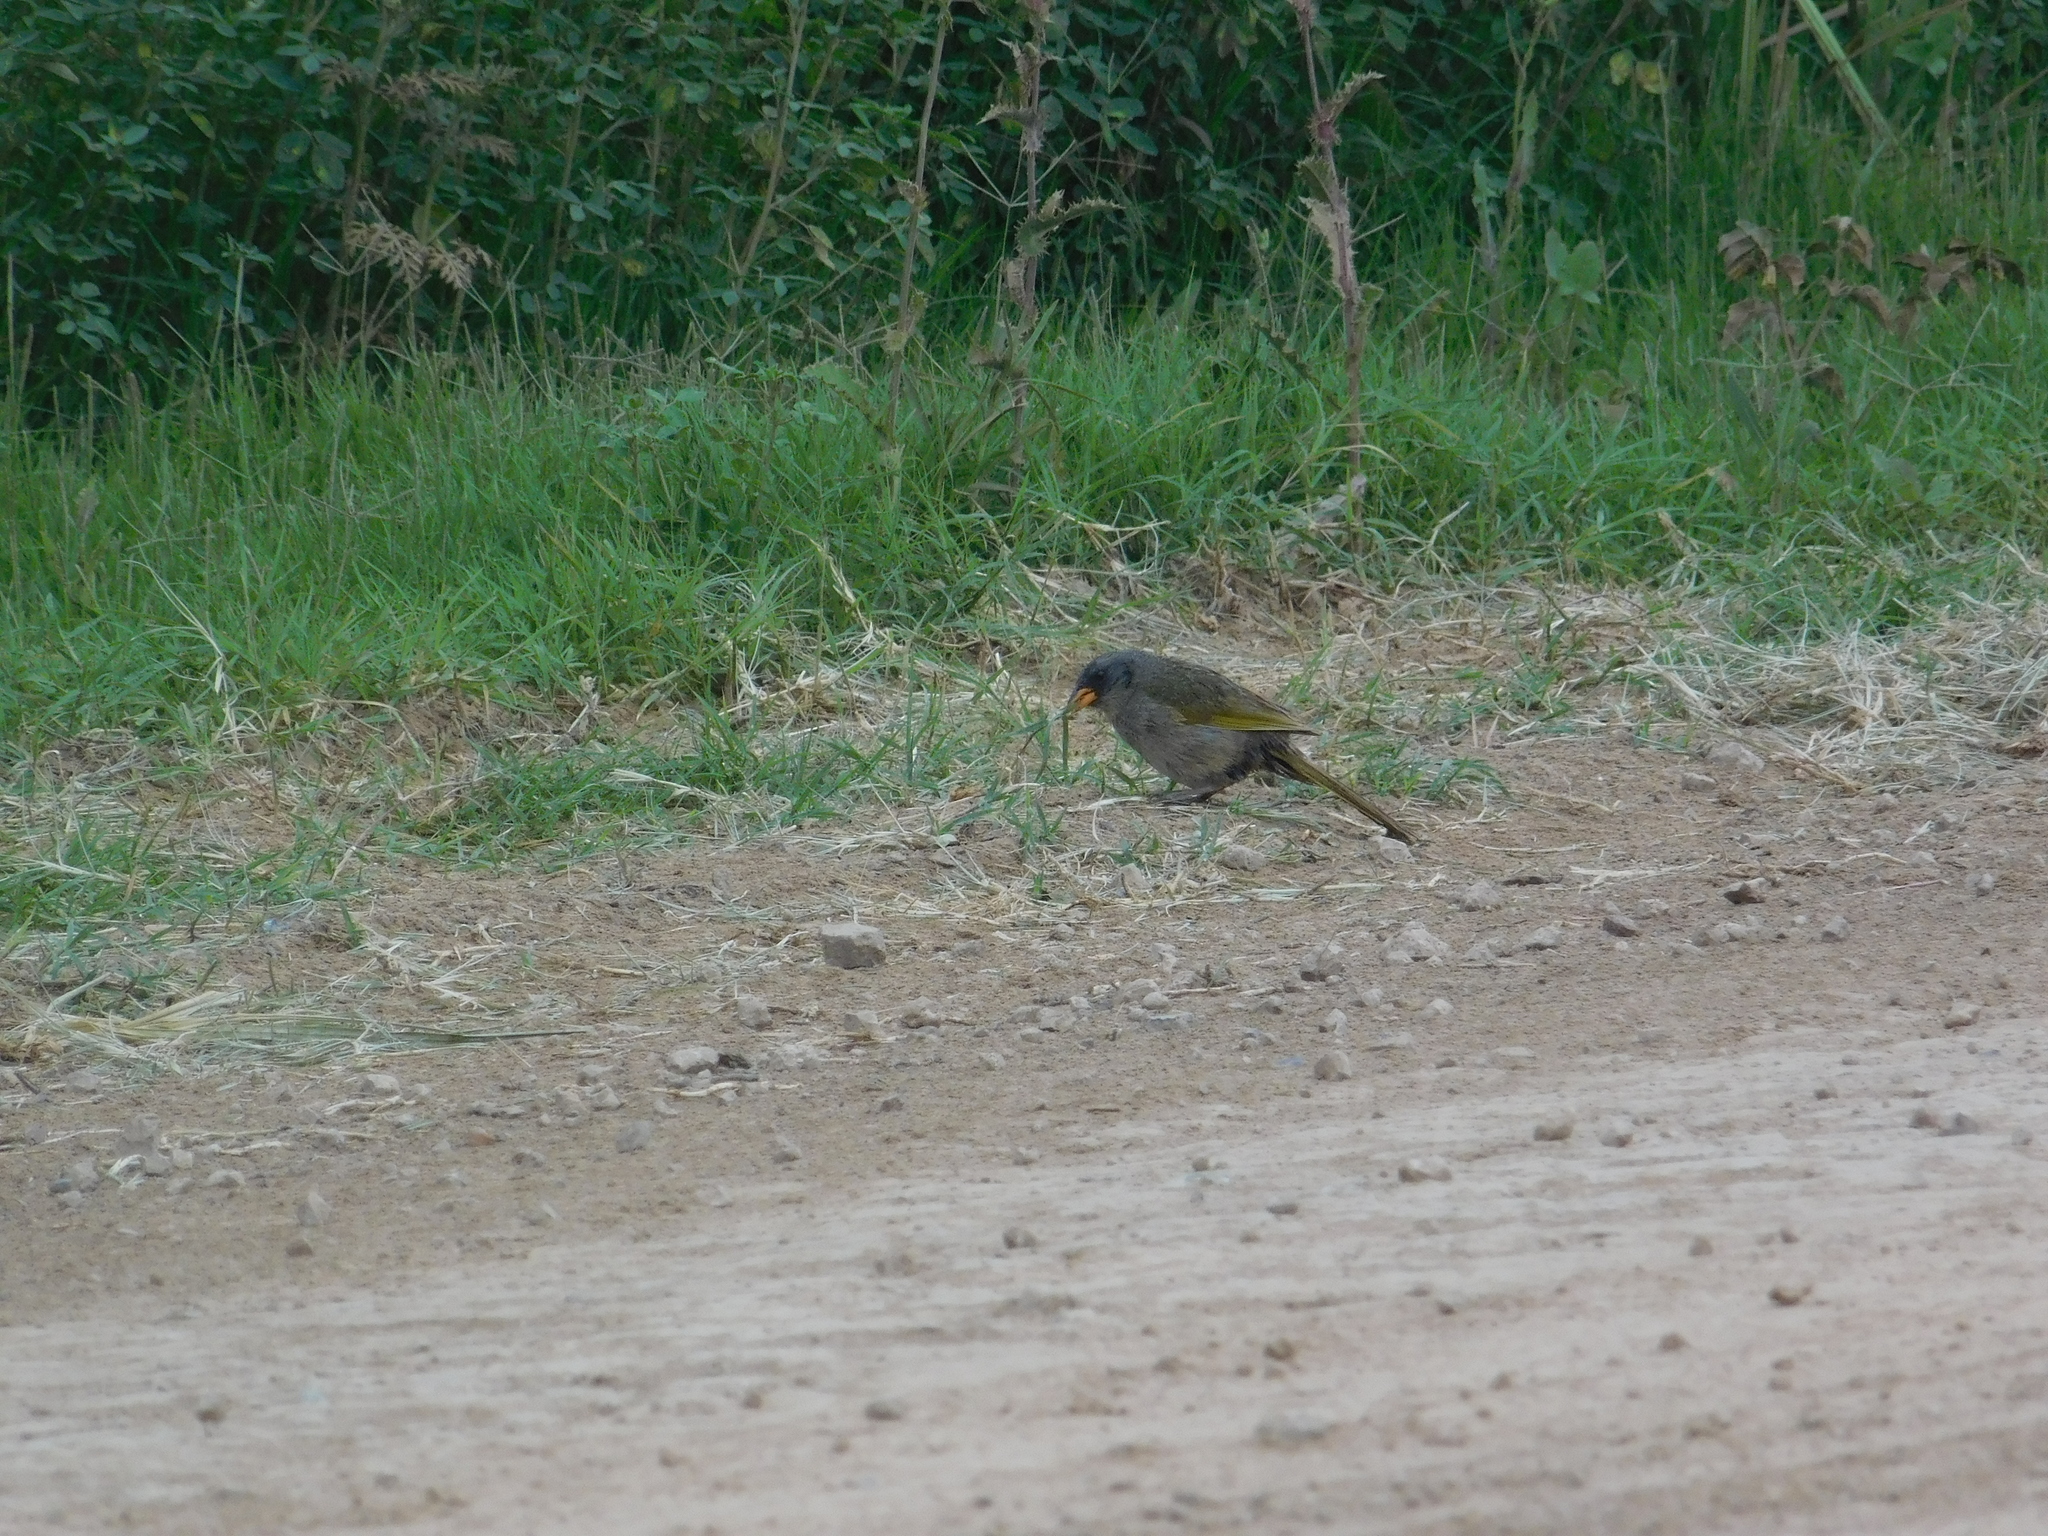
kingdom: Animalia
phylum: Chordata
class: Aves
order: Passeriformes
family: Thraupidae
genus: Embernagra
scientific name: Embernagra platensis
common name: Pampa finch
